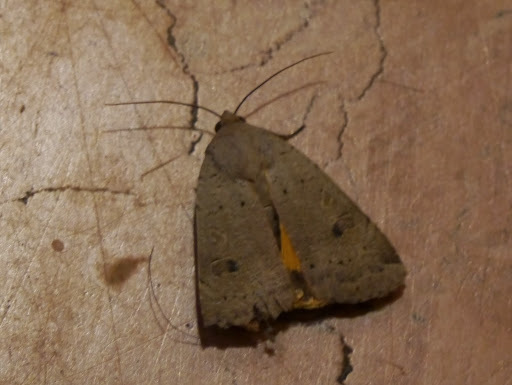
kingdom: Animalia
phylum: Arthropoda
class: Insecta
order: Lepidoptera
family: Noctuidae
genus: Noctua
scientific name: Noctua pronuba
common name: Large yellow underwing
